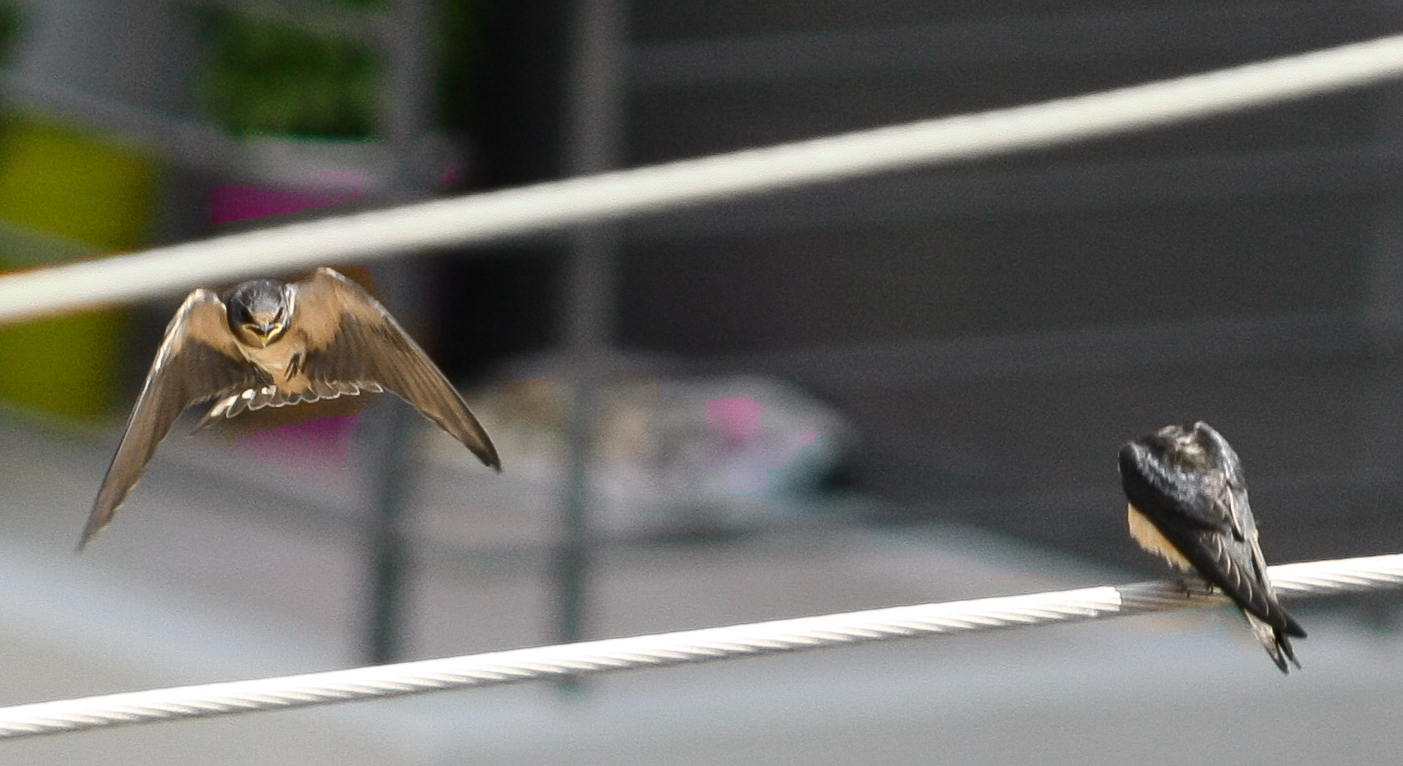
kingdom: Animalia
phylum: Chordata
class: Aves
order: Passeriformes
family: Hirundinidae
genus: Hirundo
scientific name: Hirundo rustica
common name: Barn swallow
